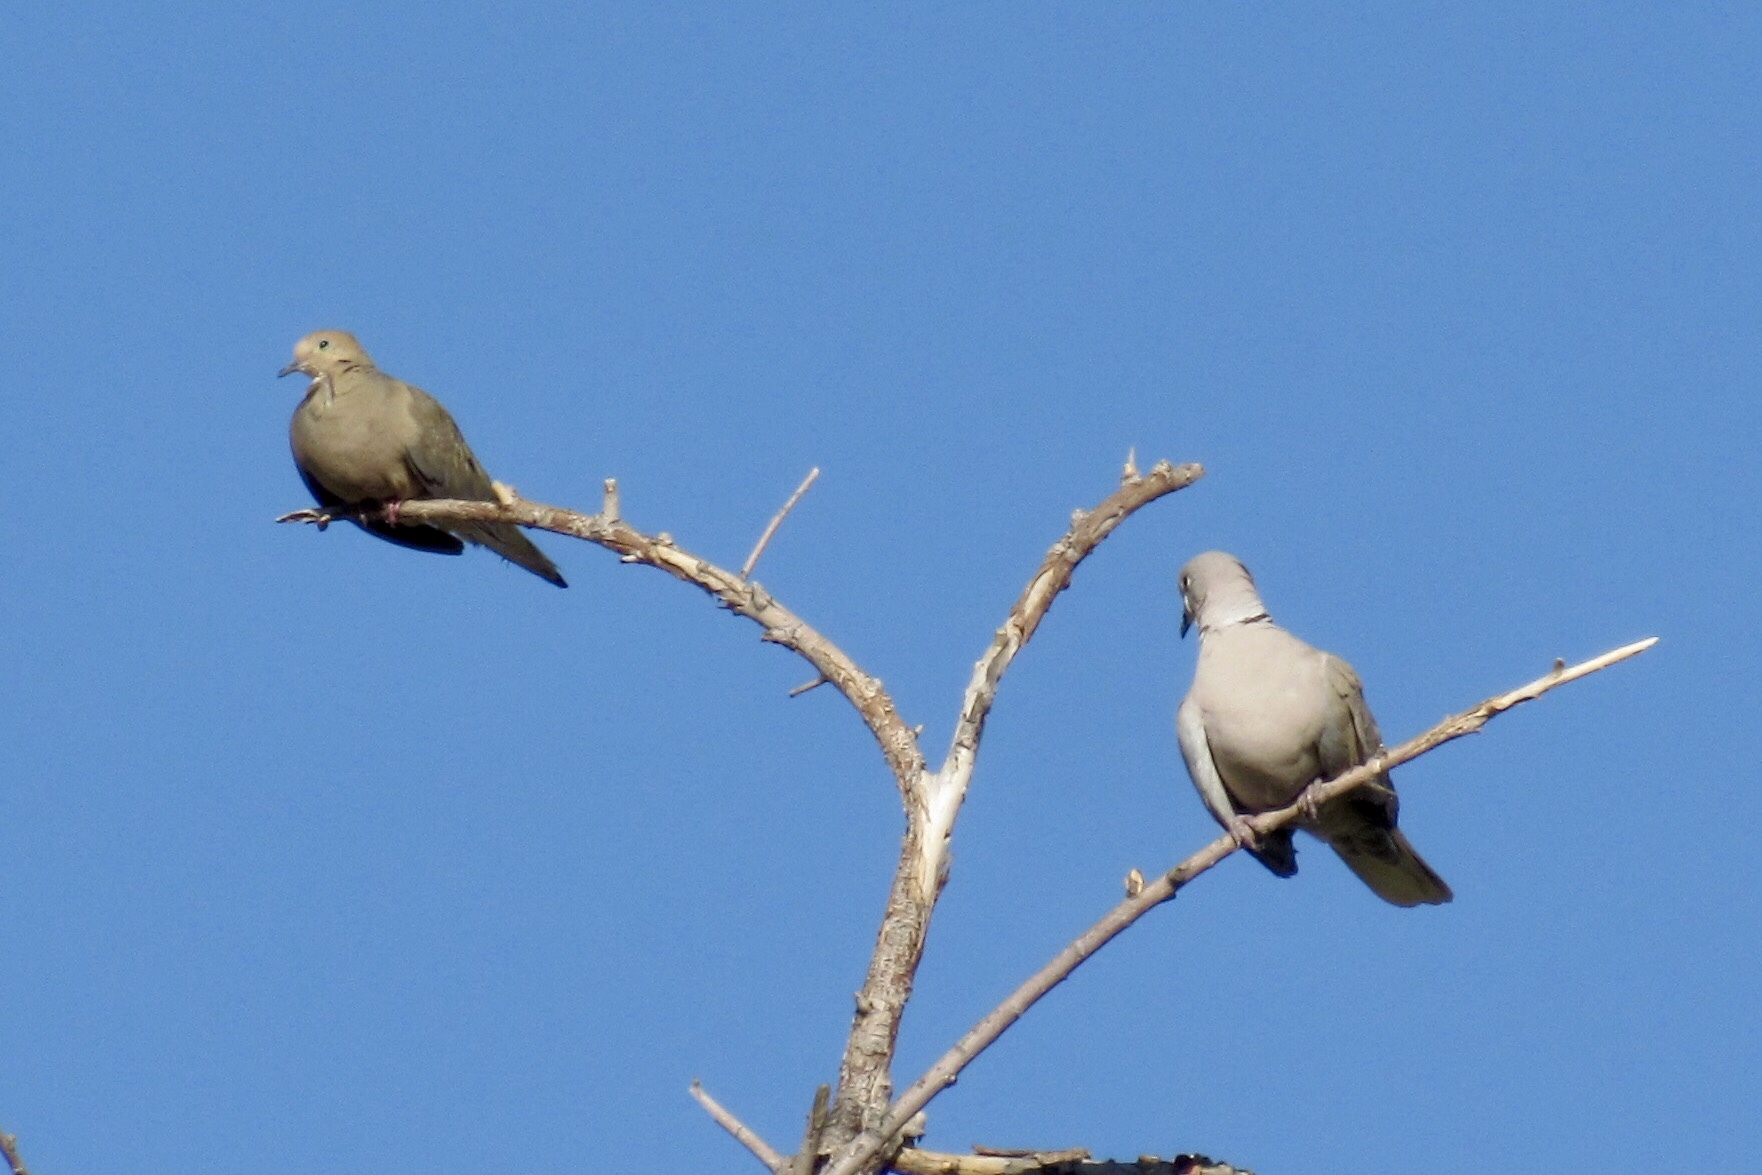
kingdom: Animalia
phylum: Chordata
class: Aves
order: Columbiformes
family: Columbidae
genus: Streptopelia
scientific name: Streptopelia decaocto
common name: Eurasian collared dove
